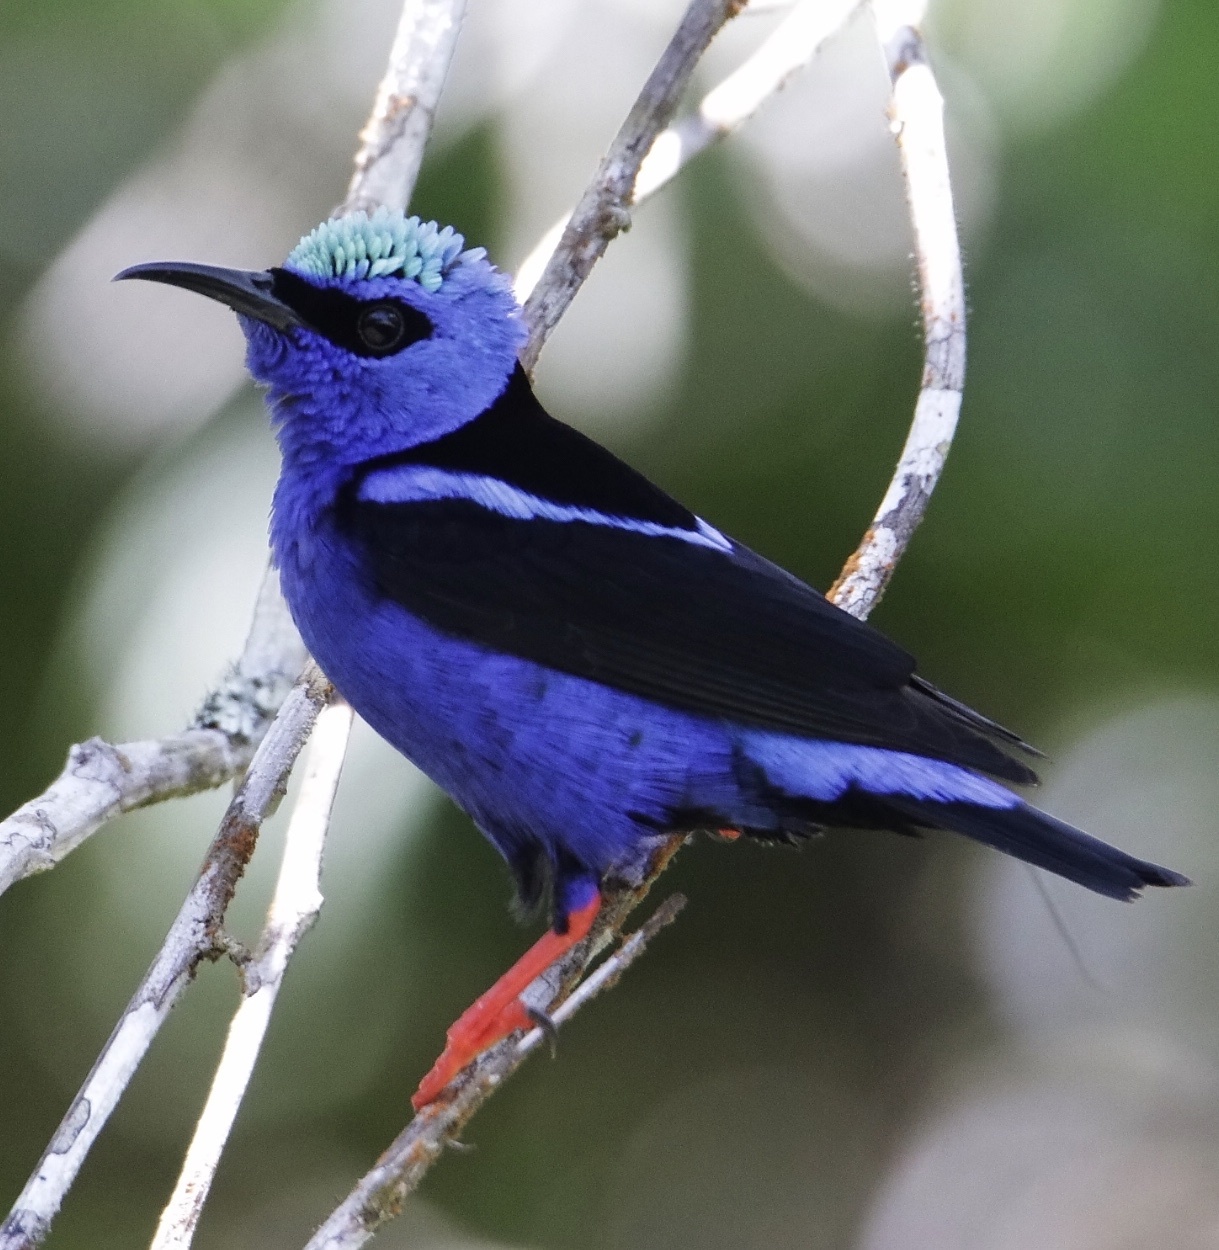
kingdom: Animalia
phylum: Chordata
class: Aves
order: Passeriformes
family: Thraupidae
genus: Cyanerpes
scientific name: Cyanerpes cyaneus
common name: Red-legged honeycreeper
